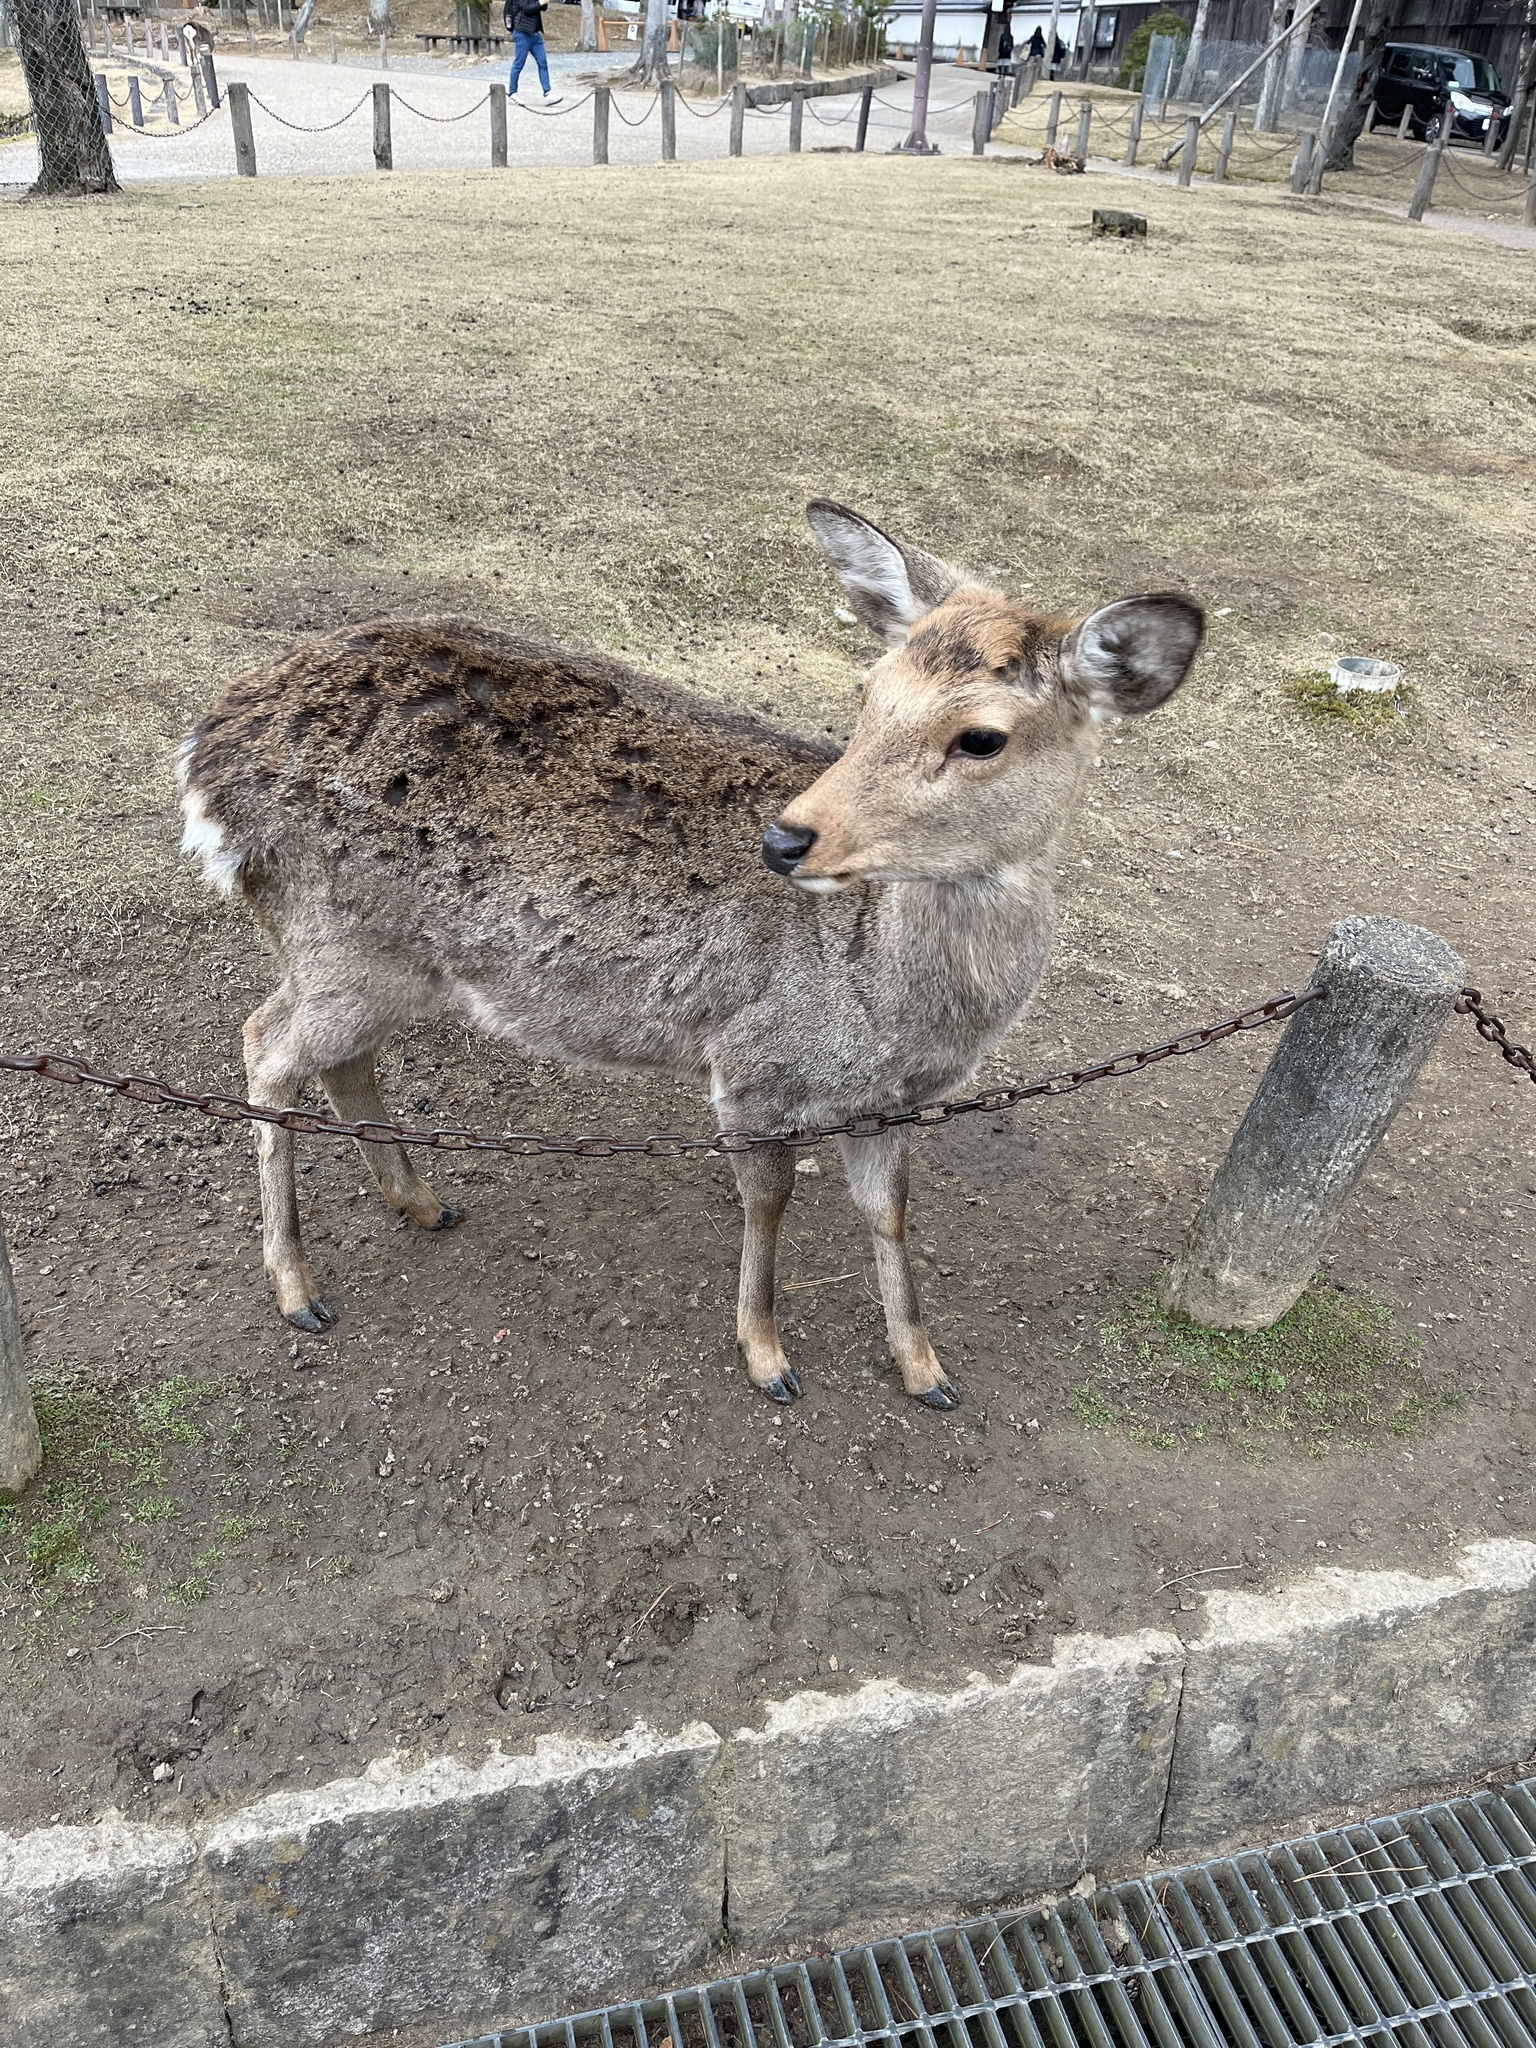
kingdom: Animalia
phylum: Chordata
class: Mammalia
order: Artiodactyla
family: Cervidae
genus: Cervus
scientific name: Cervus nippon
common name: Sika deer
